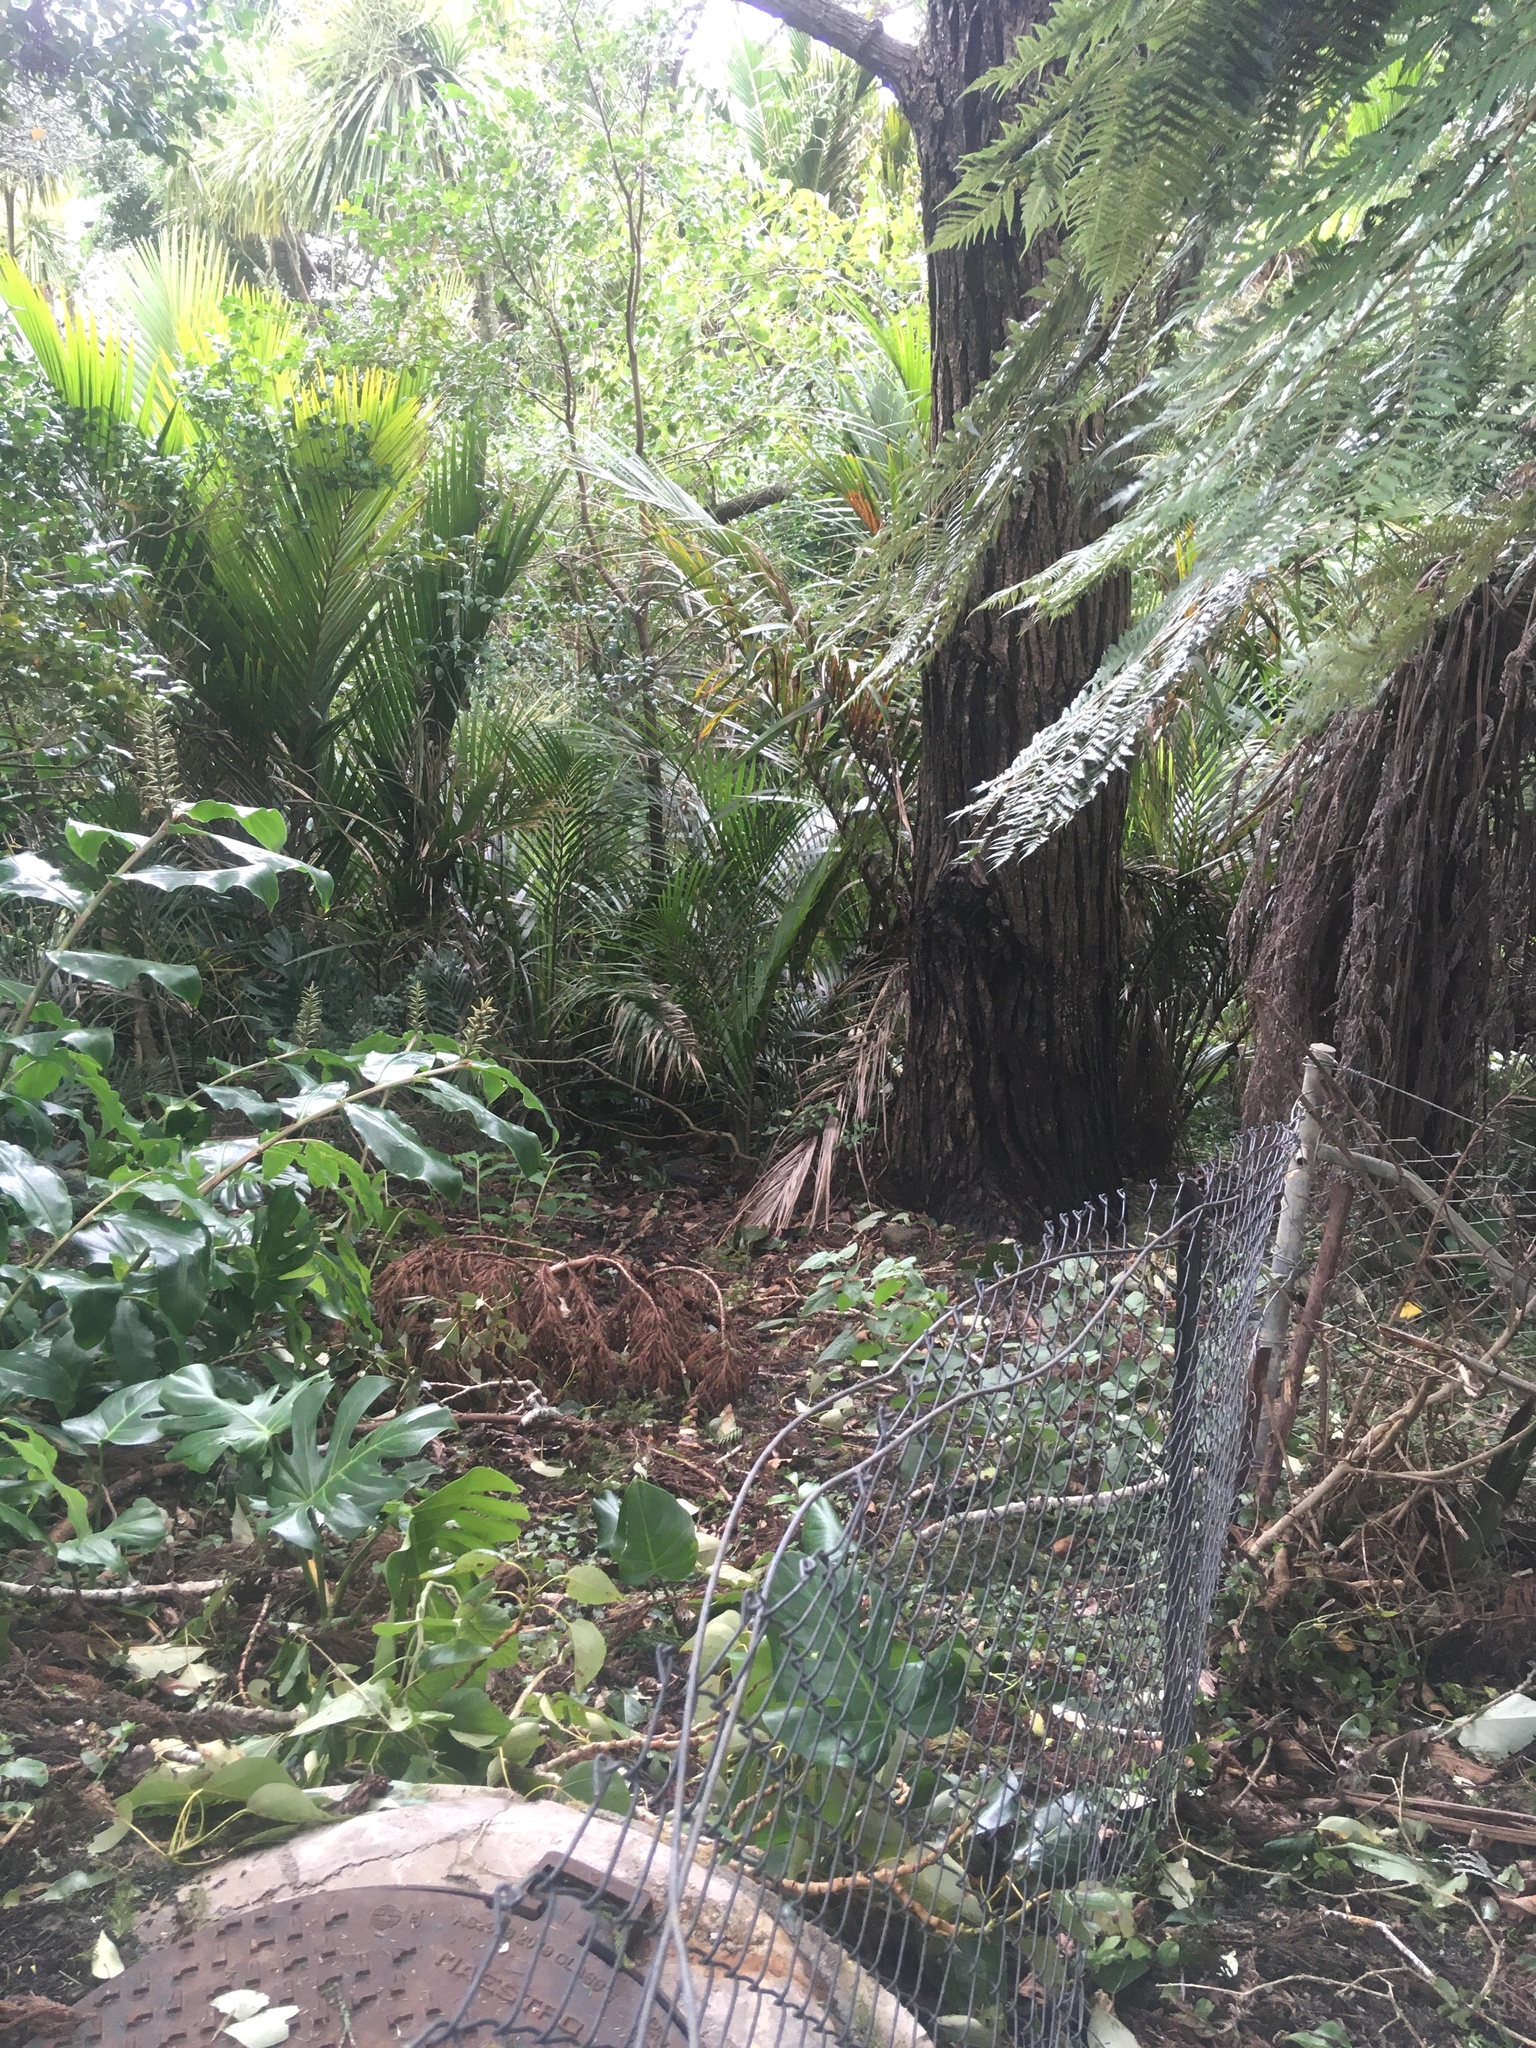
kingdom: Plantae
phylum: Tracheophyta
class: Liliopsida
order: Arecales
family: Arecaceae
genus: Rhopalostylis
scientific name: Rhopalostylis sapida
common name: Feather-duster palm
